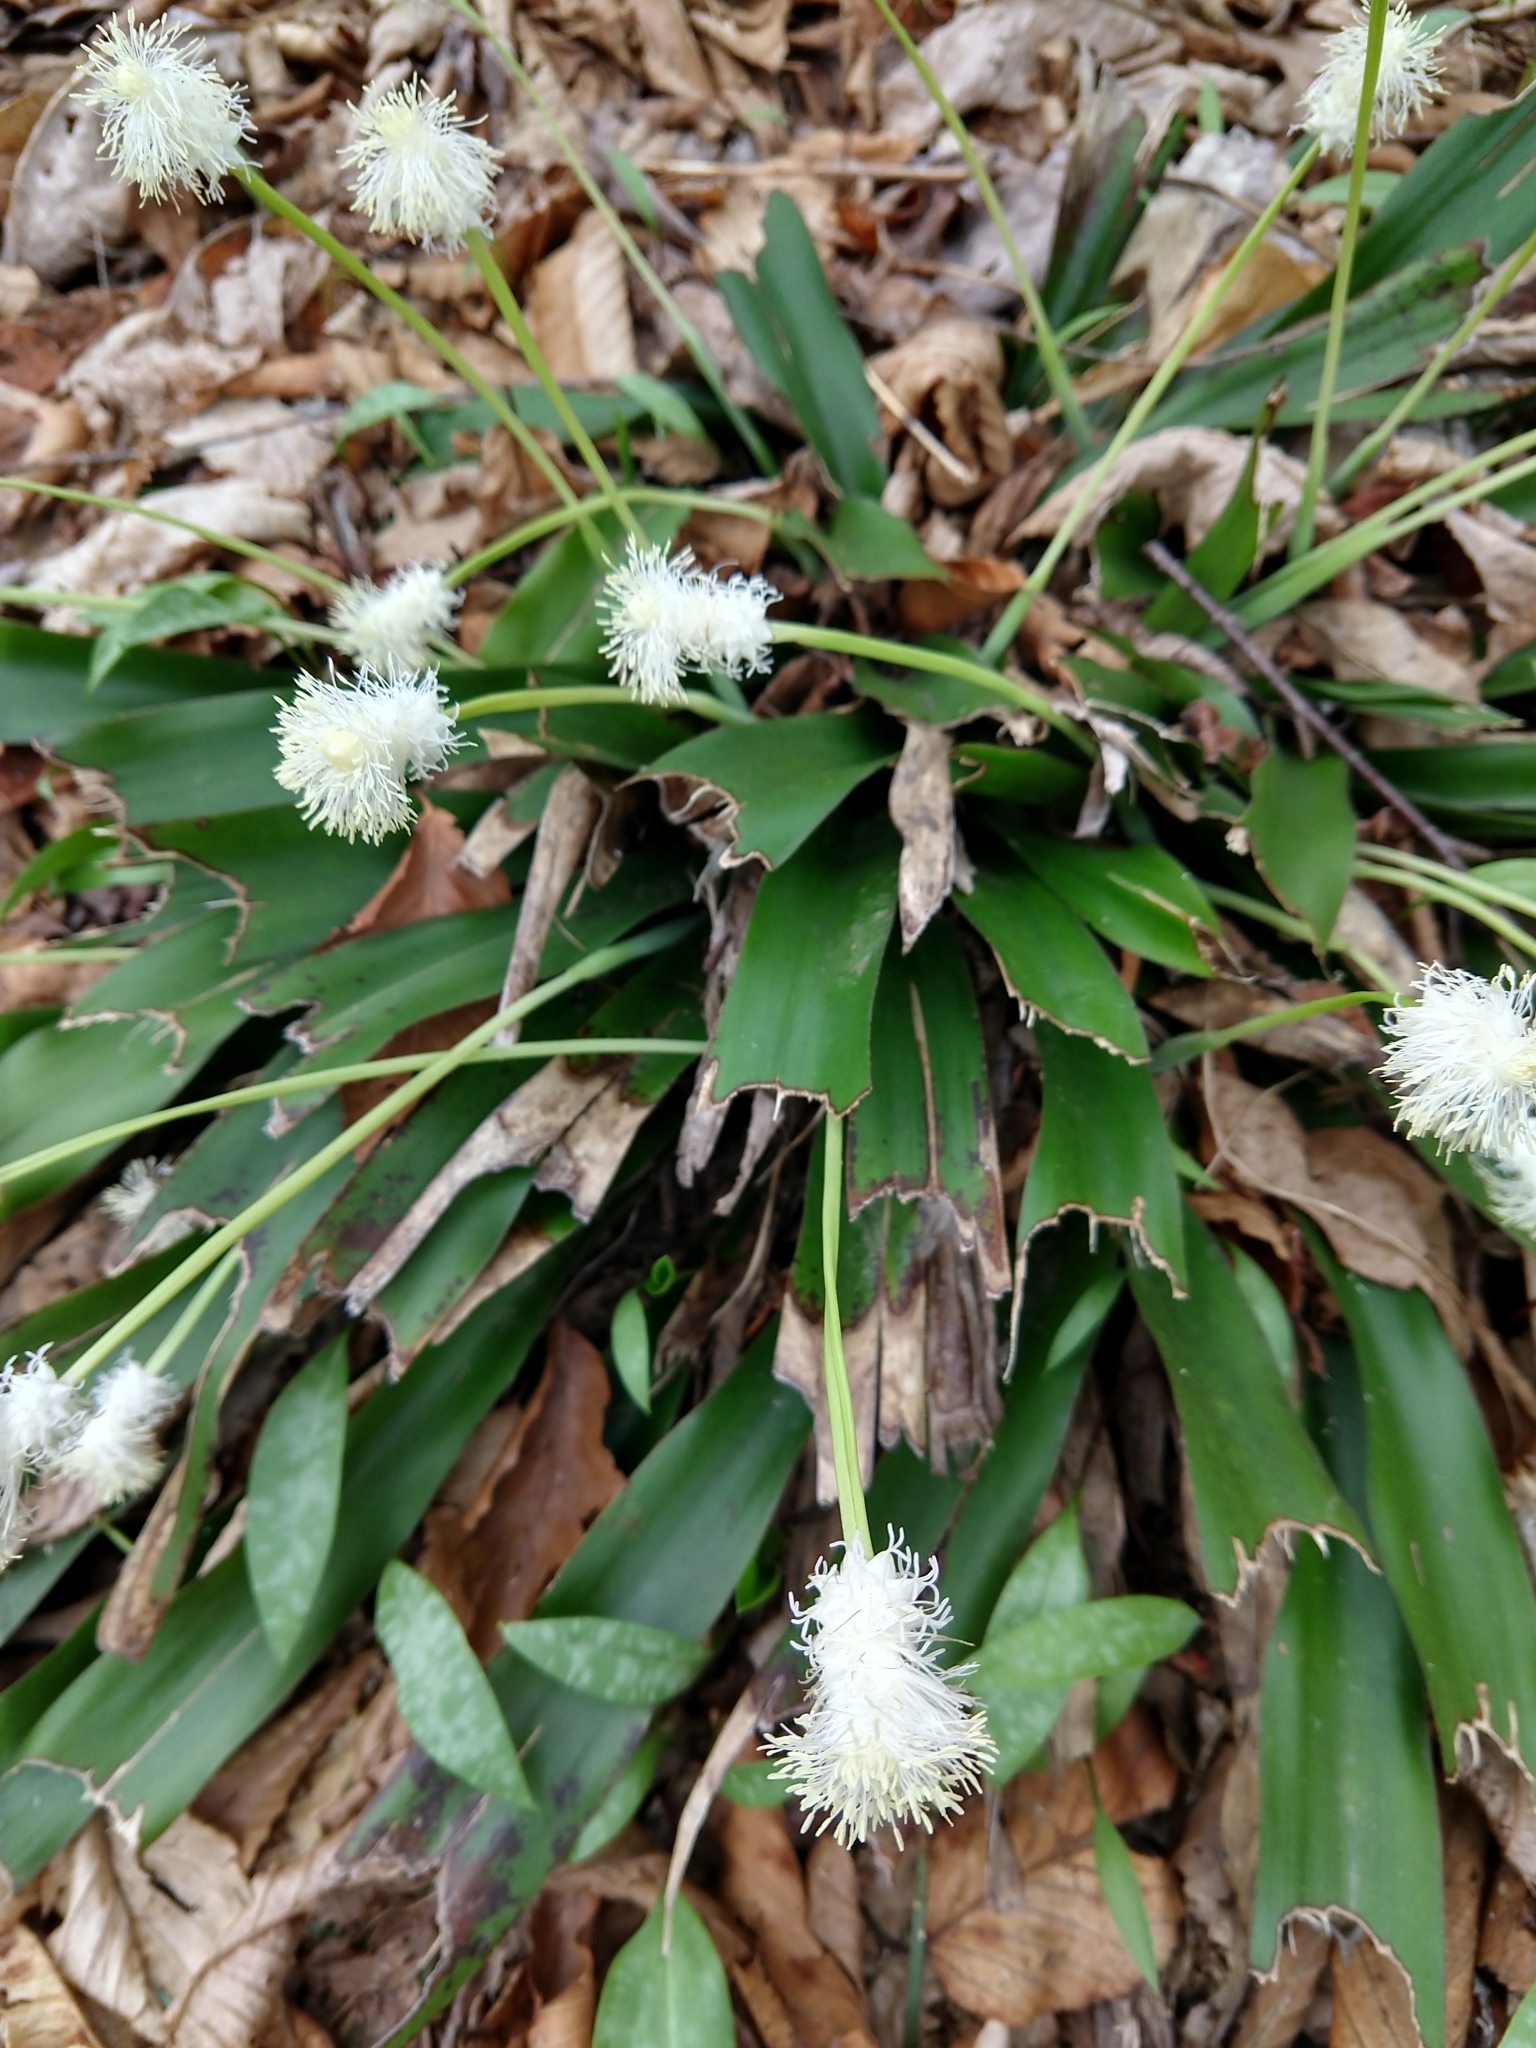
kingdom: Plantae
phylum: Tracheophyta
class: Liliopsida
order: Poales
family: Cyperaceae
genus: Carex
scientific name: Carex fraseriana
